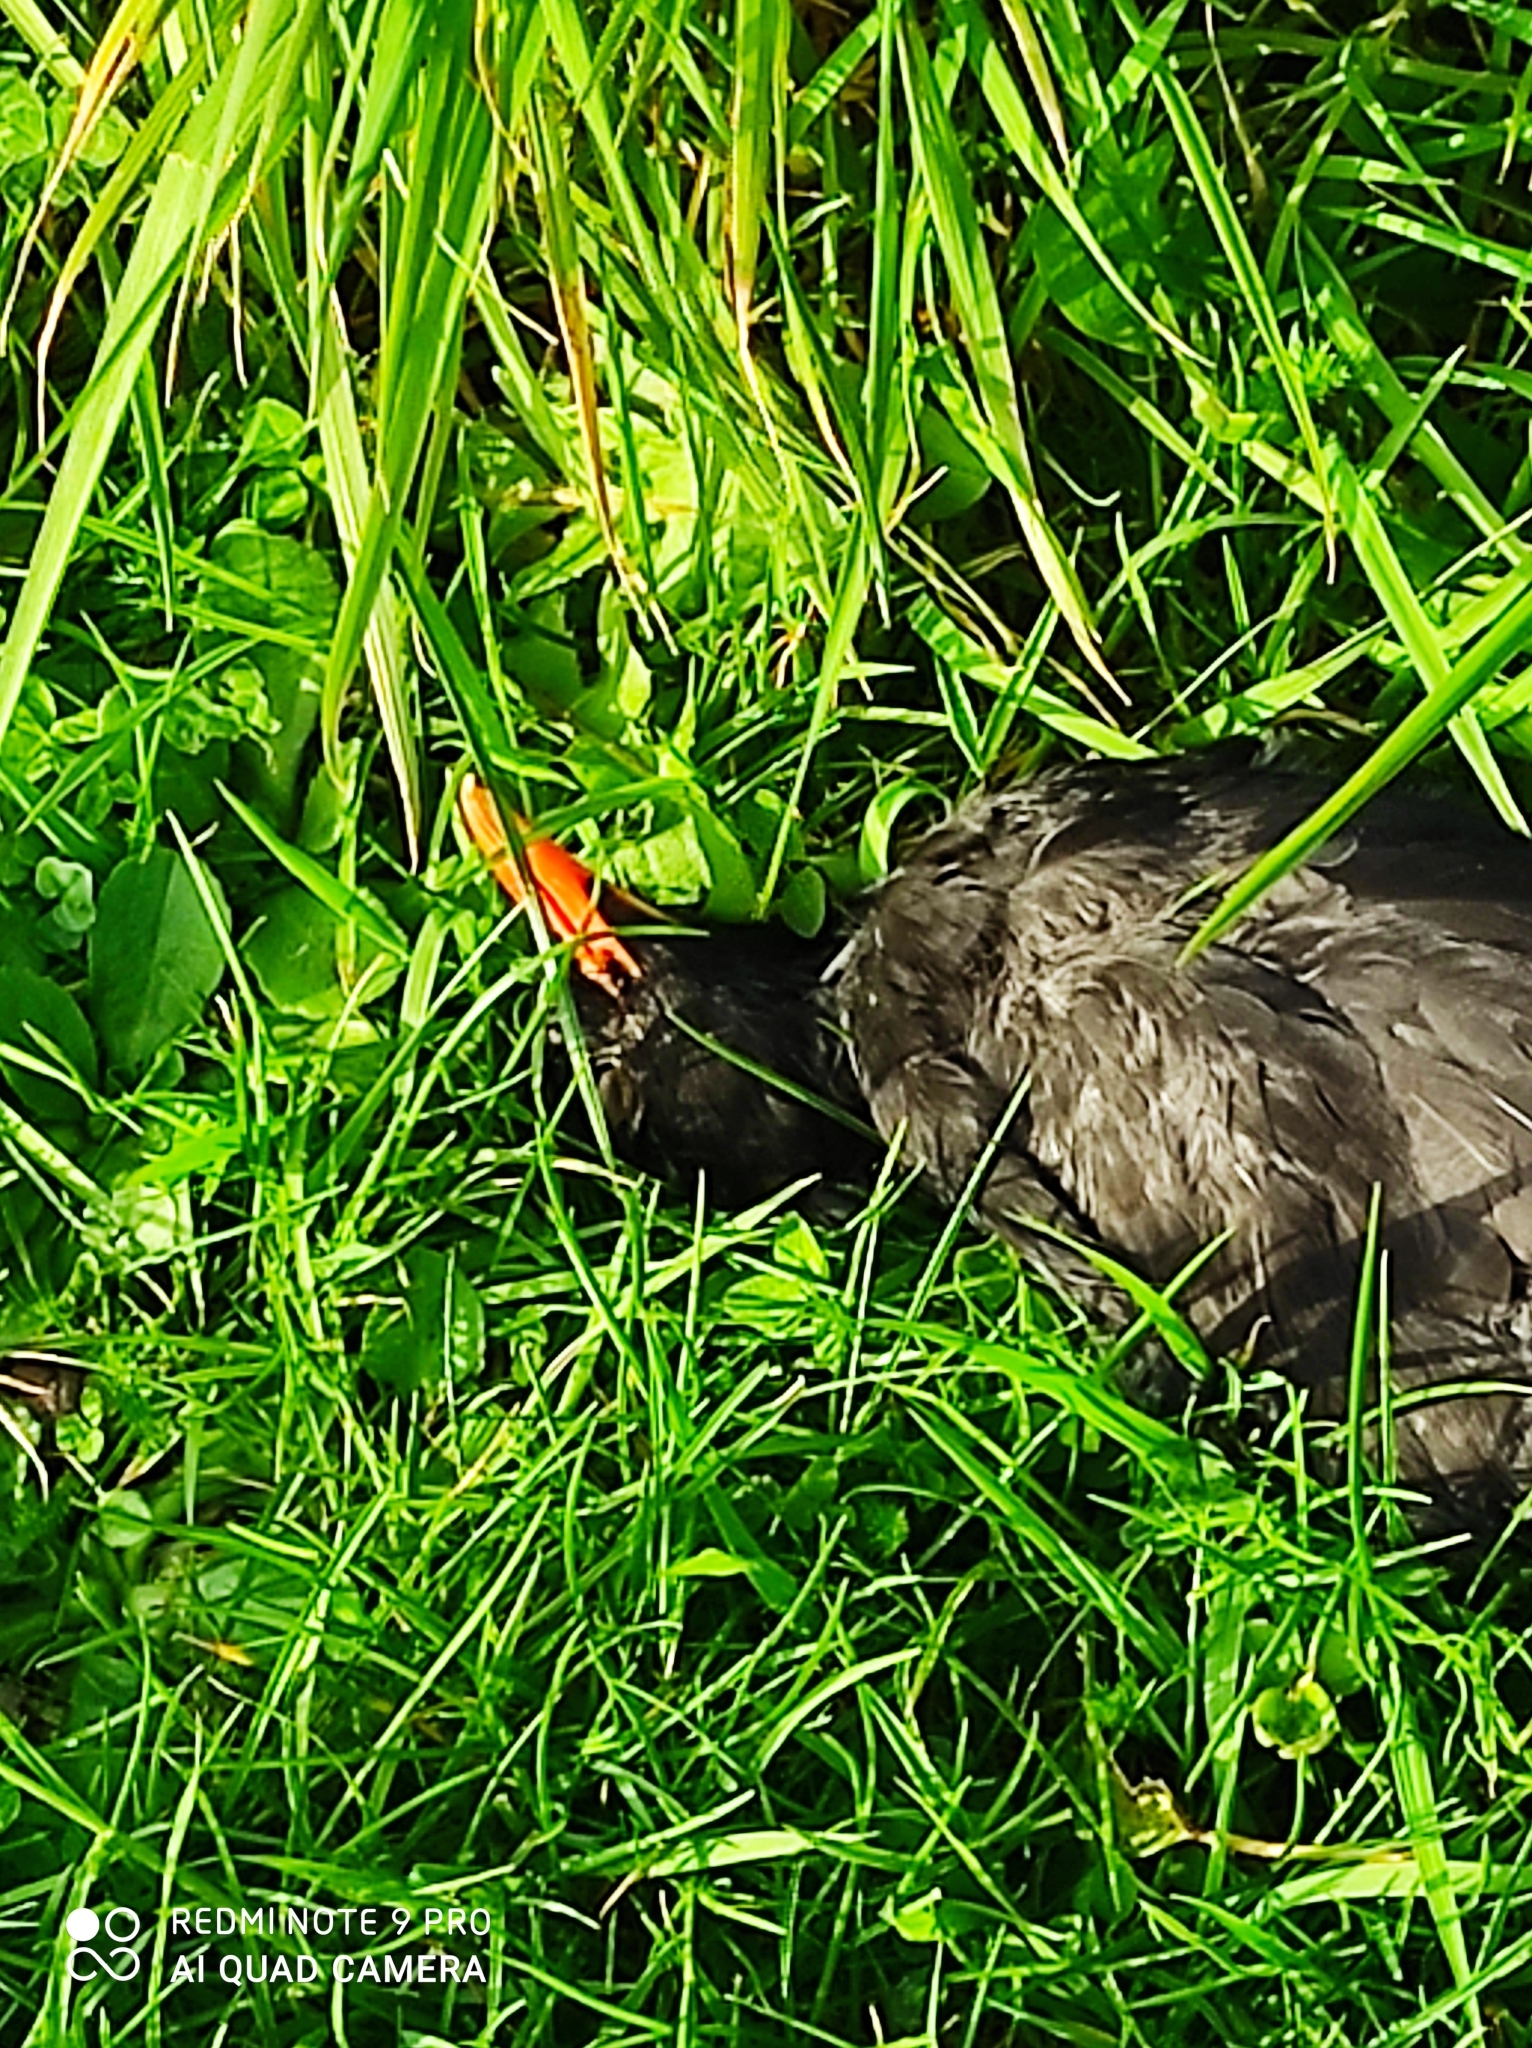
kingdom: Animalia
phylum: Chordata
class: Aves
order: Passeriformes
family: Turdidae
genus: Turdus
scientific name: Turdus merula
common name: Common blackbird
